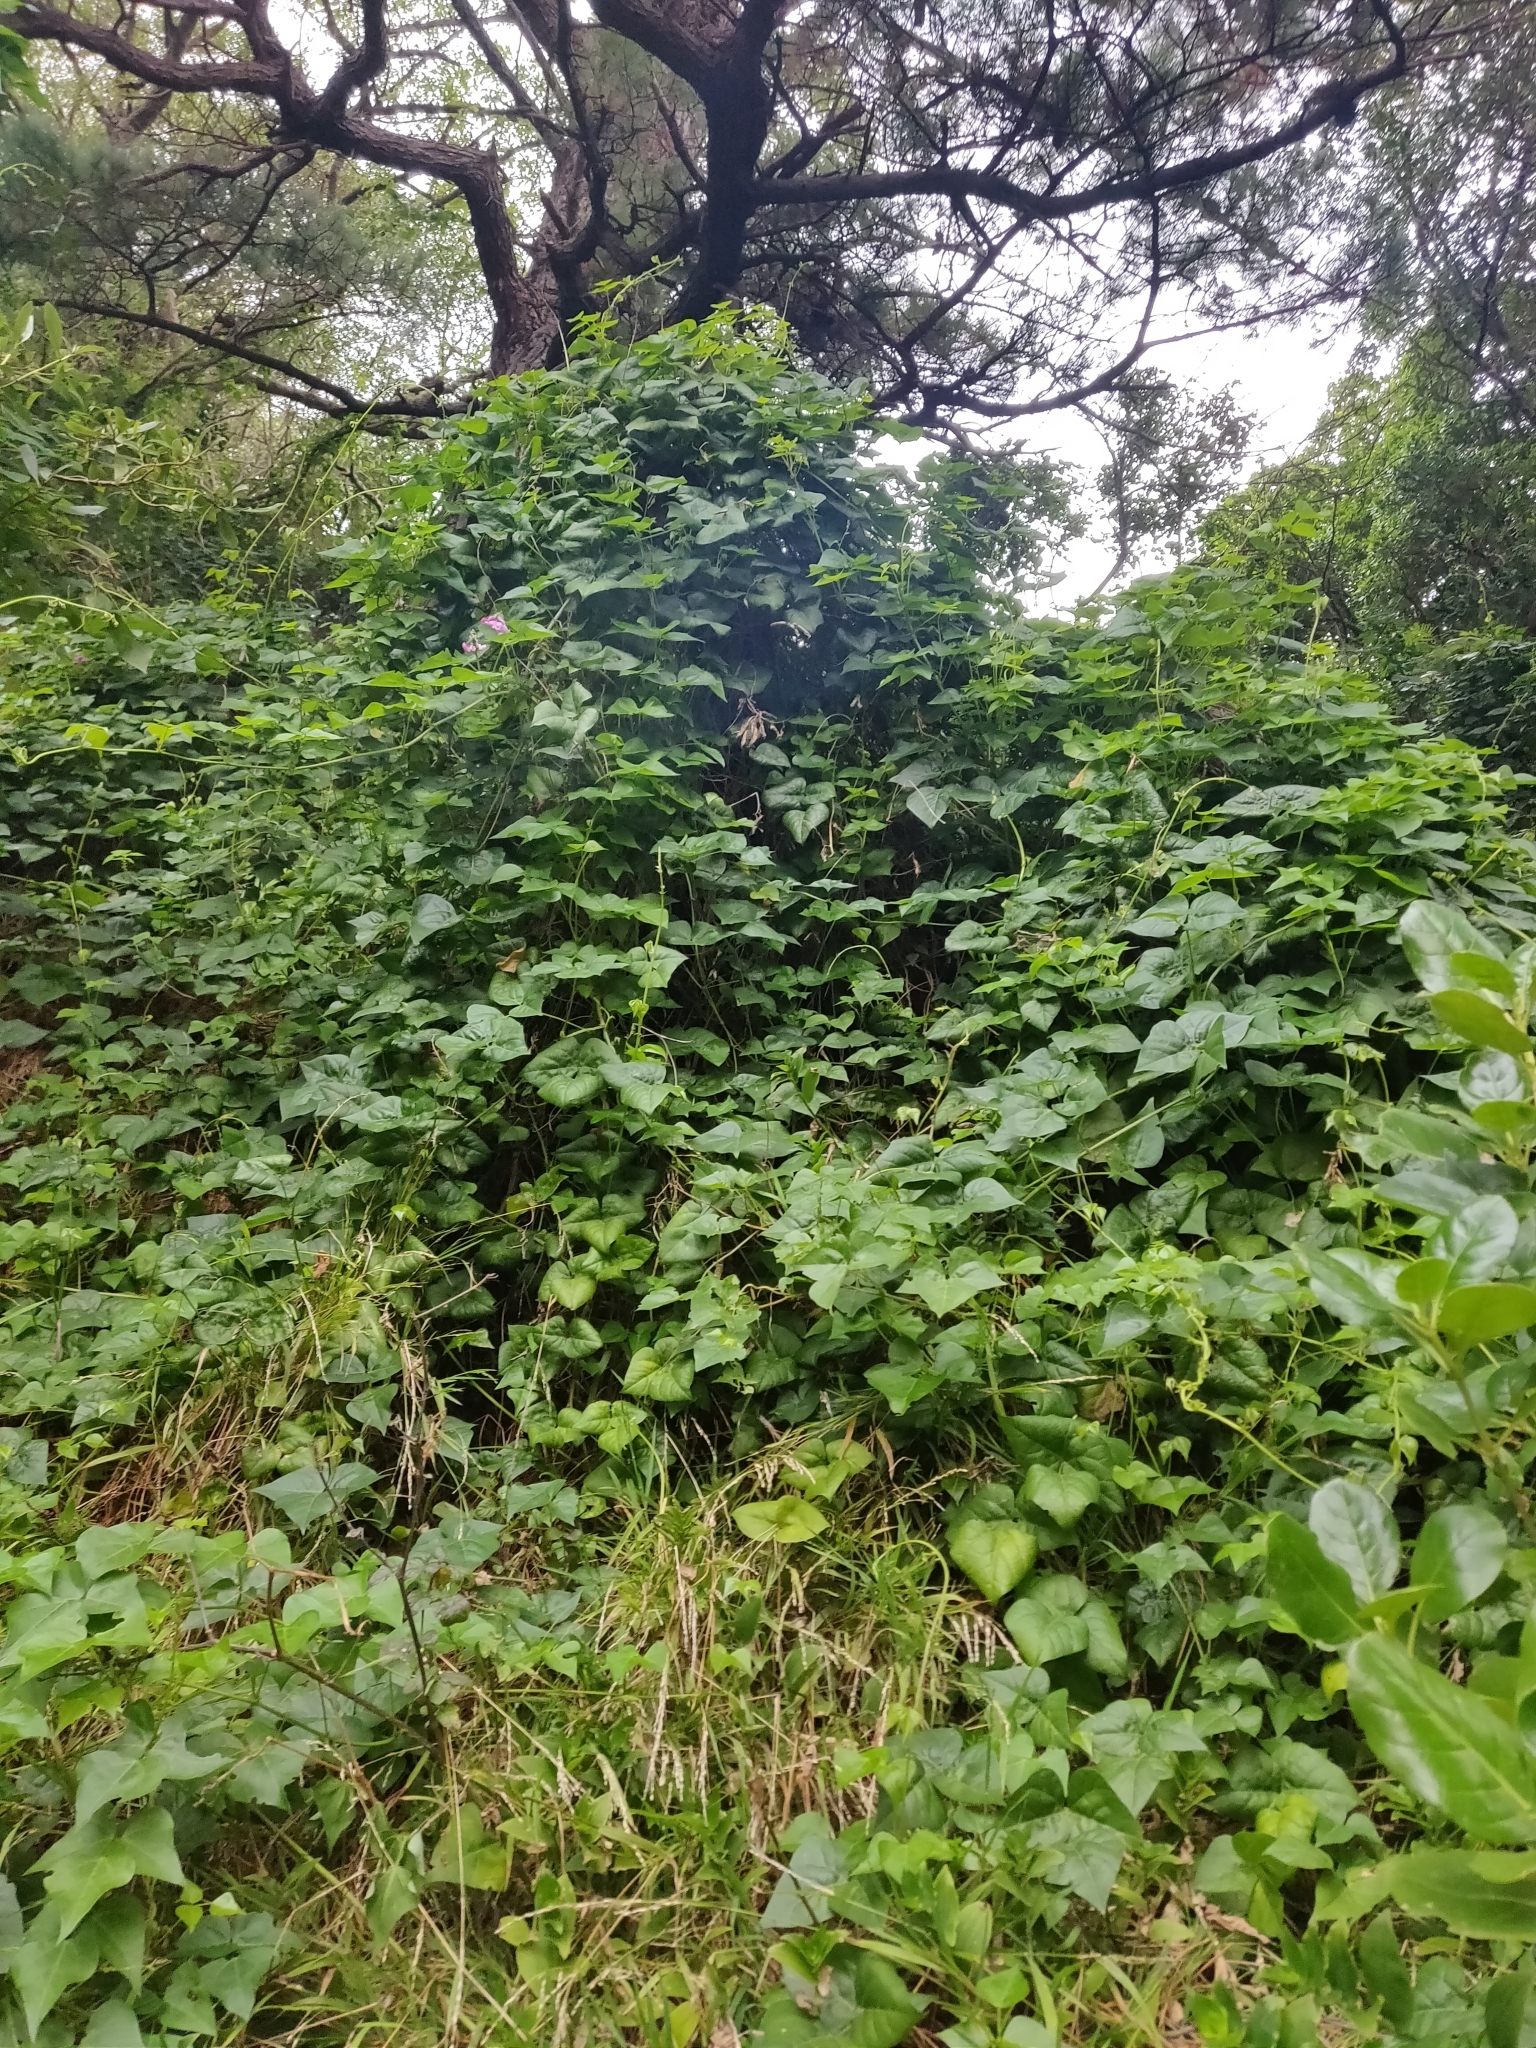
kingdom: Plantae
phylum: Tracheophyta
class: Magnoliopsida
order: Fabales
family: Fabaceae
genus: Dipogon
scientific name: Dipogon lignosus
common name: Okie bean
